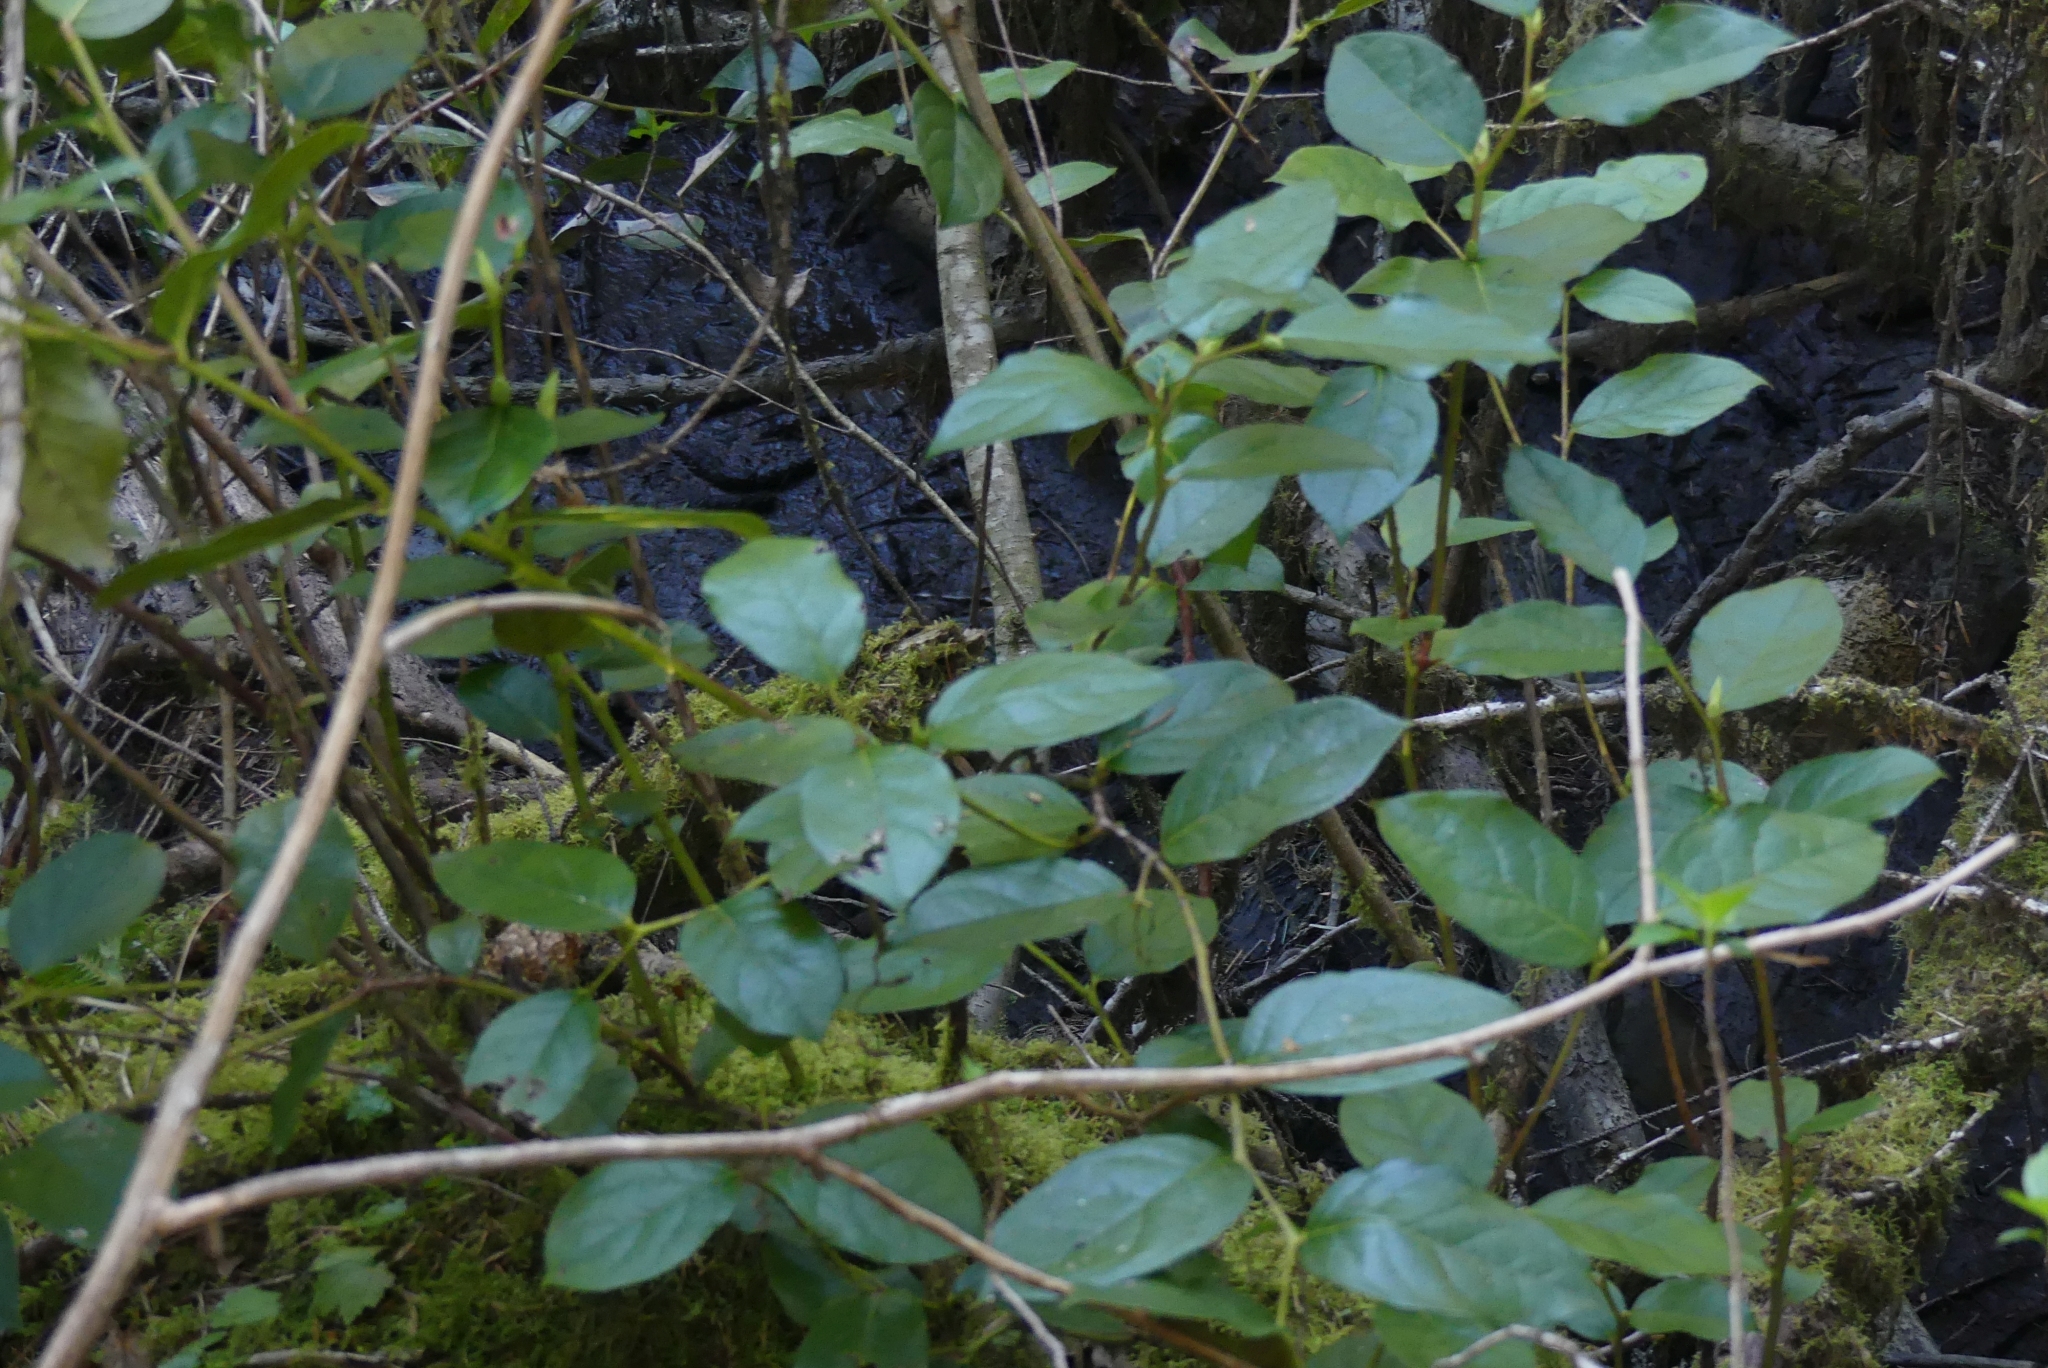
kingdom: Plantae
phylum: Tracheophyta
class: Magnoliopsida
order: Ericales
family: Ericaceae
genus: Gaultheria
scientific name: Gaultheria shallon
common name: Shallon
